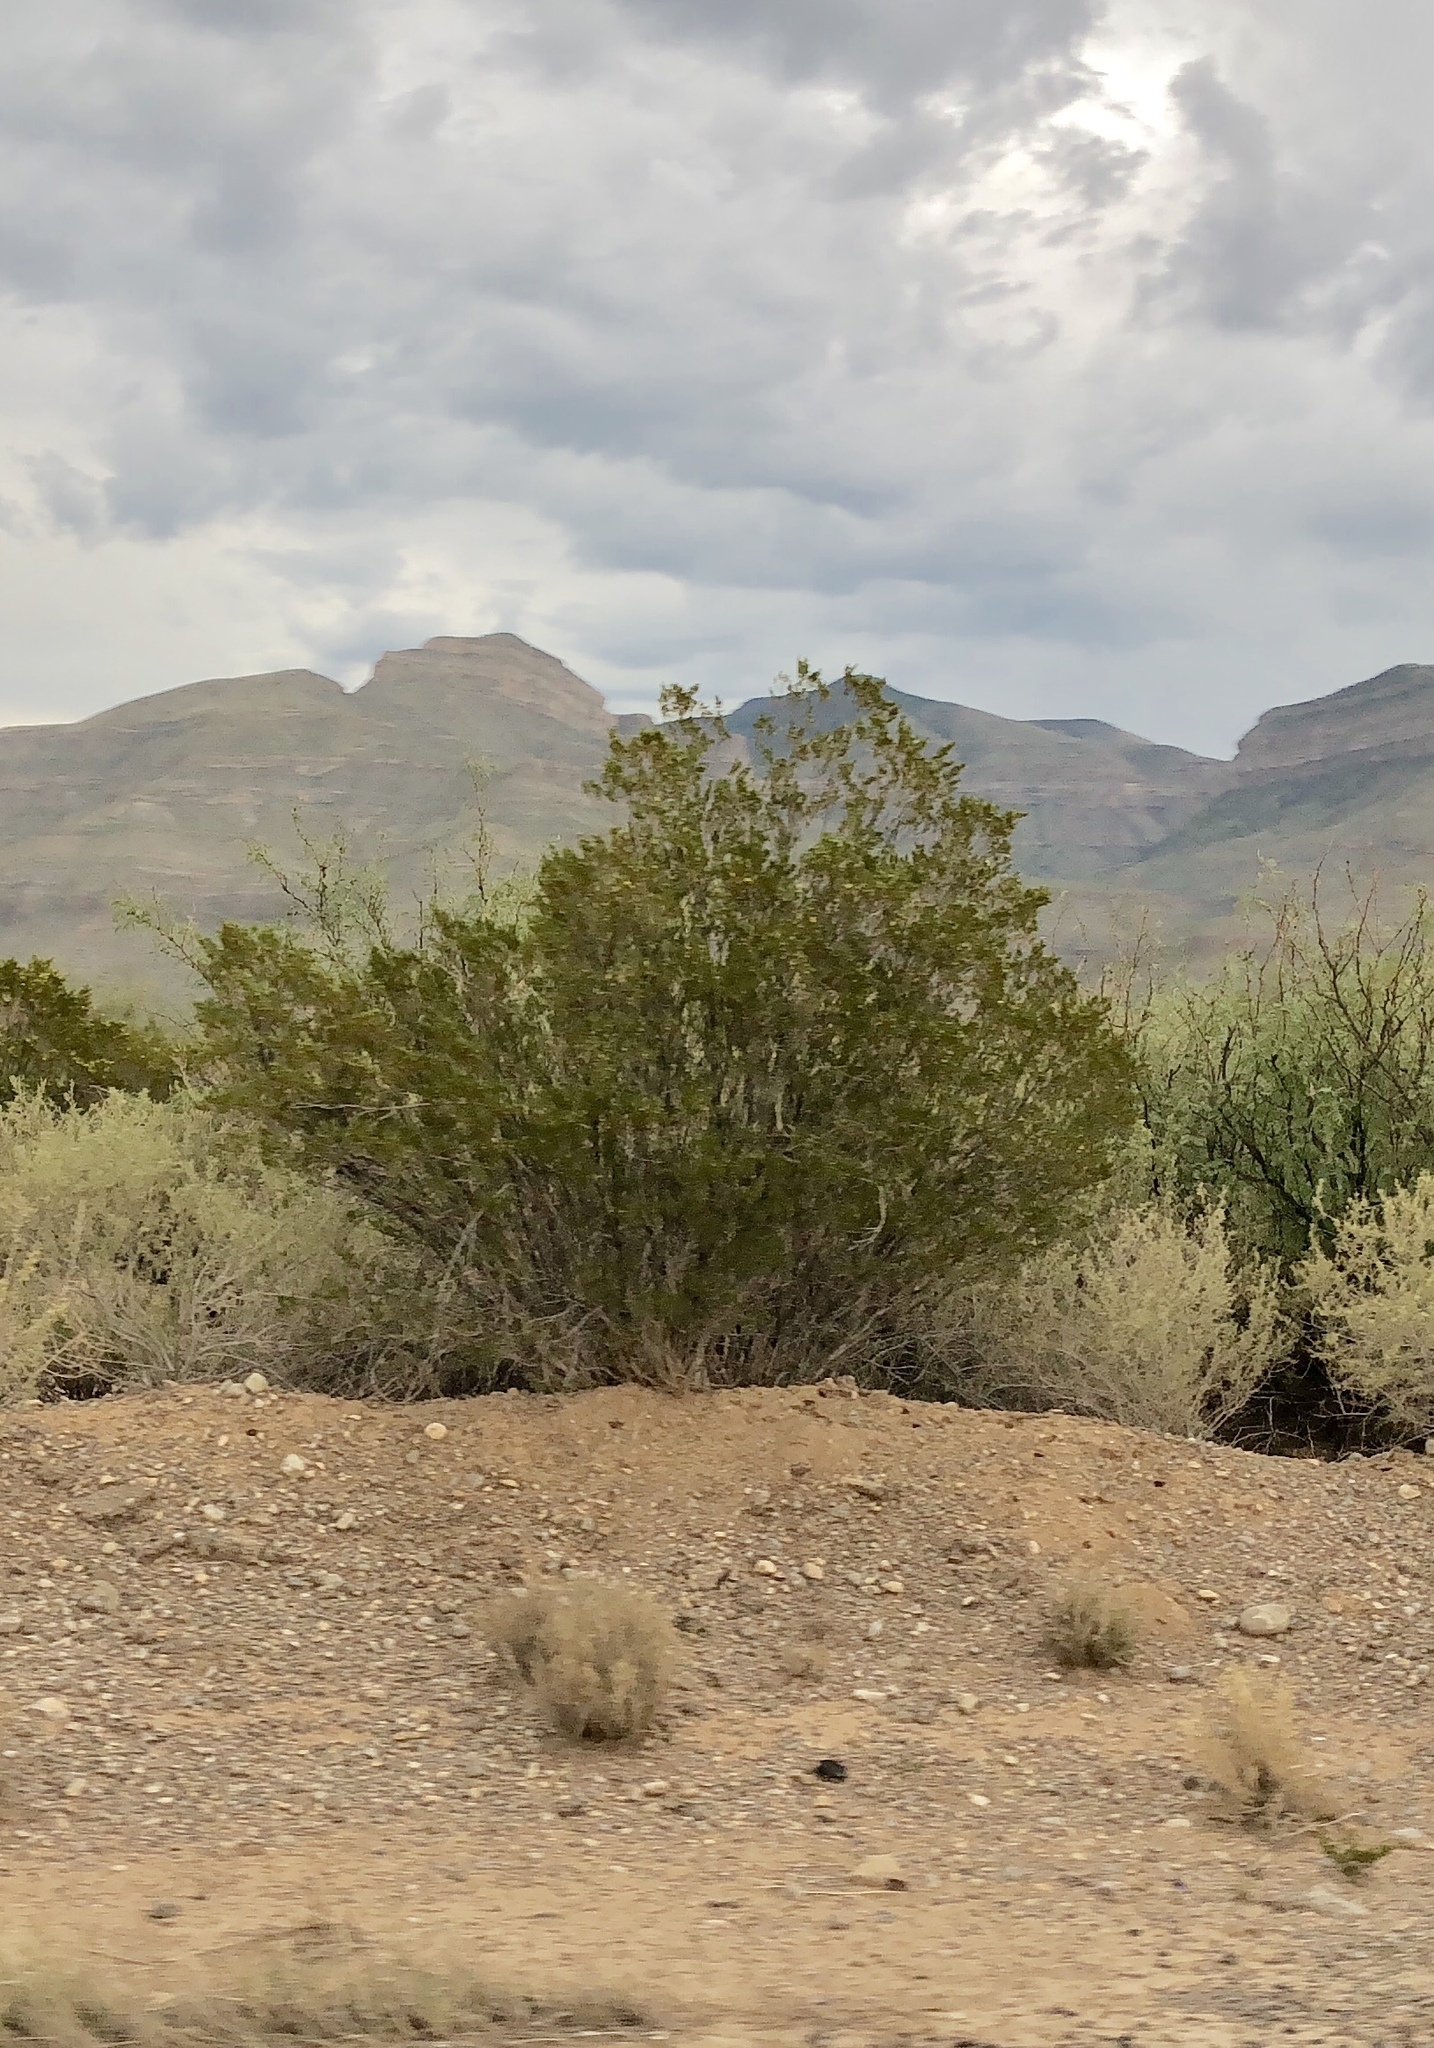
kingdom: Plantae
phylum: Tracheophyta
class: Magnoliopsida
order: Zygophyllales
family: Zygophyllaceae
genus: Larrea
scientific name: Larrea tridentata
